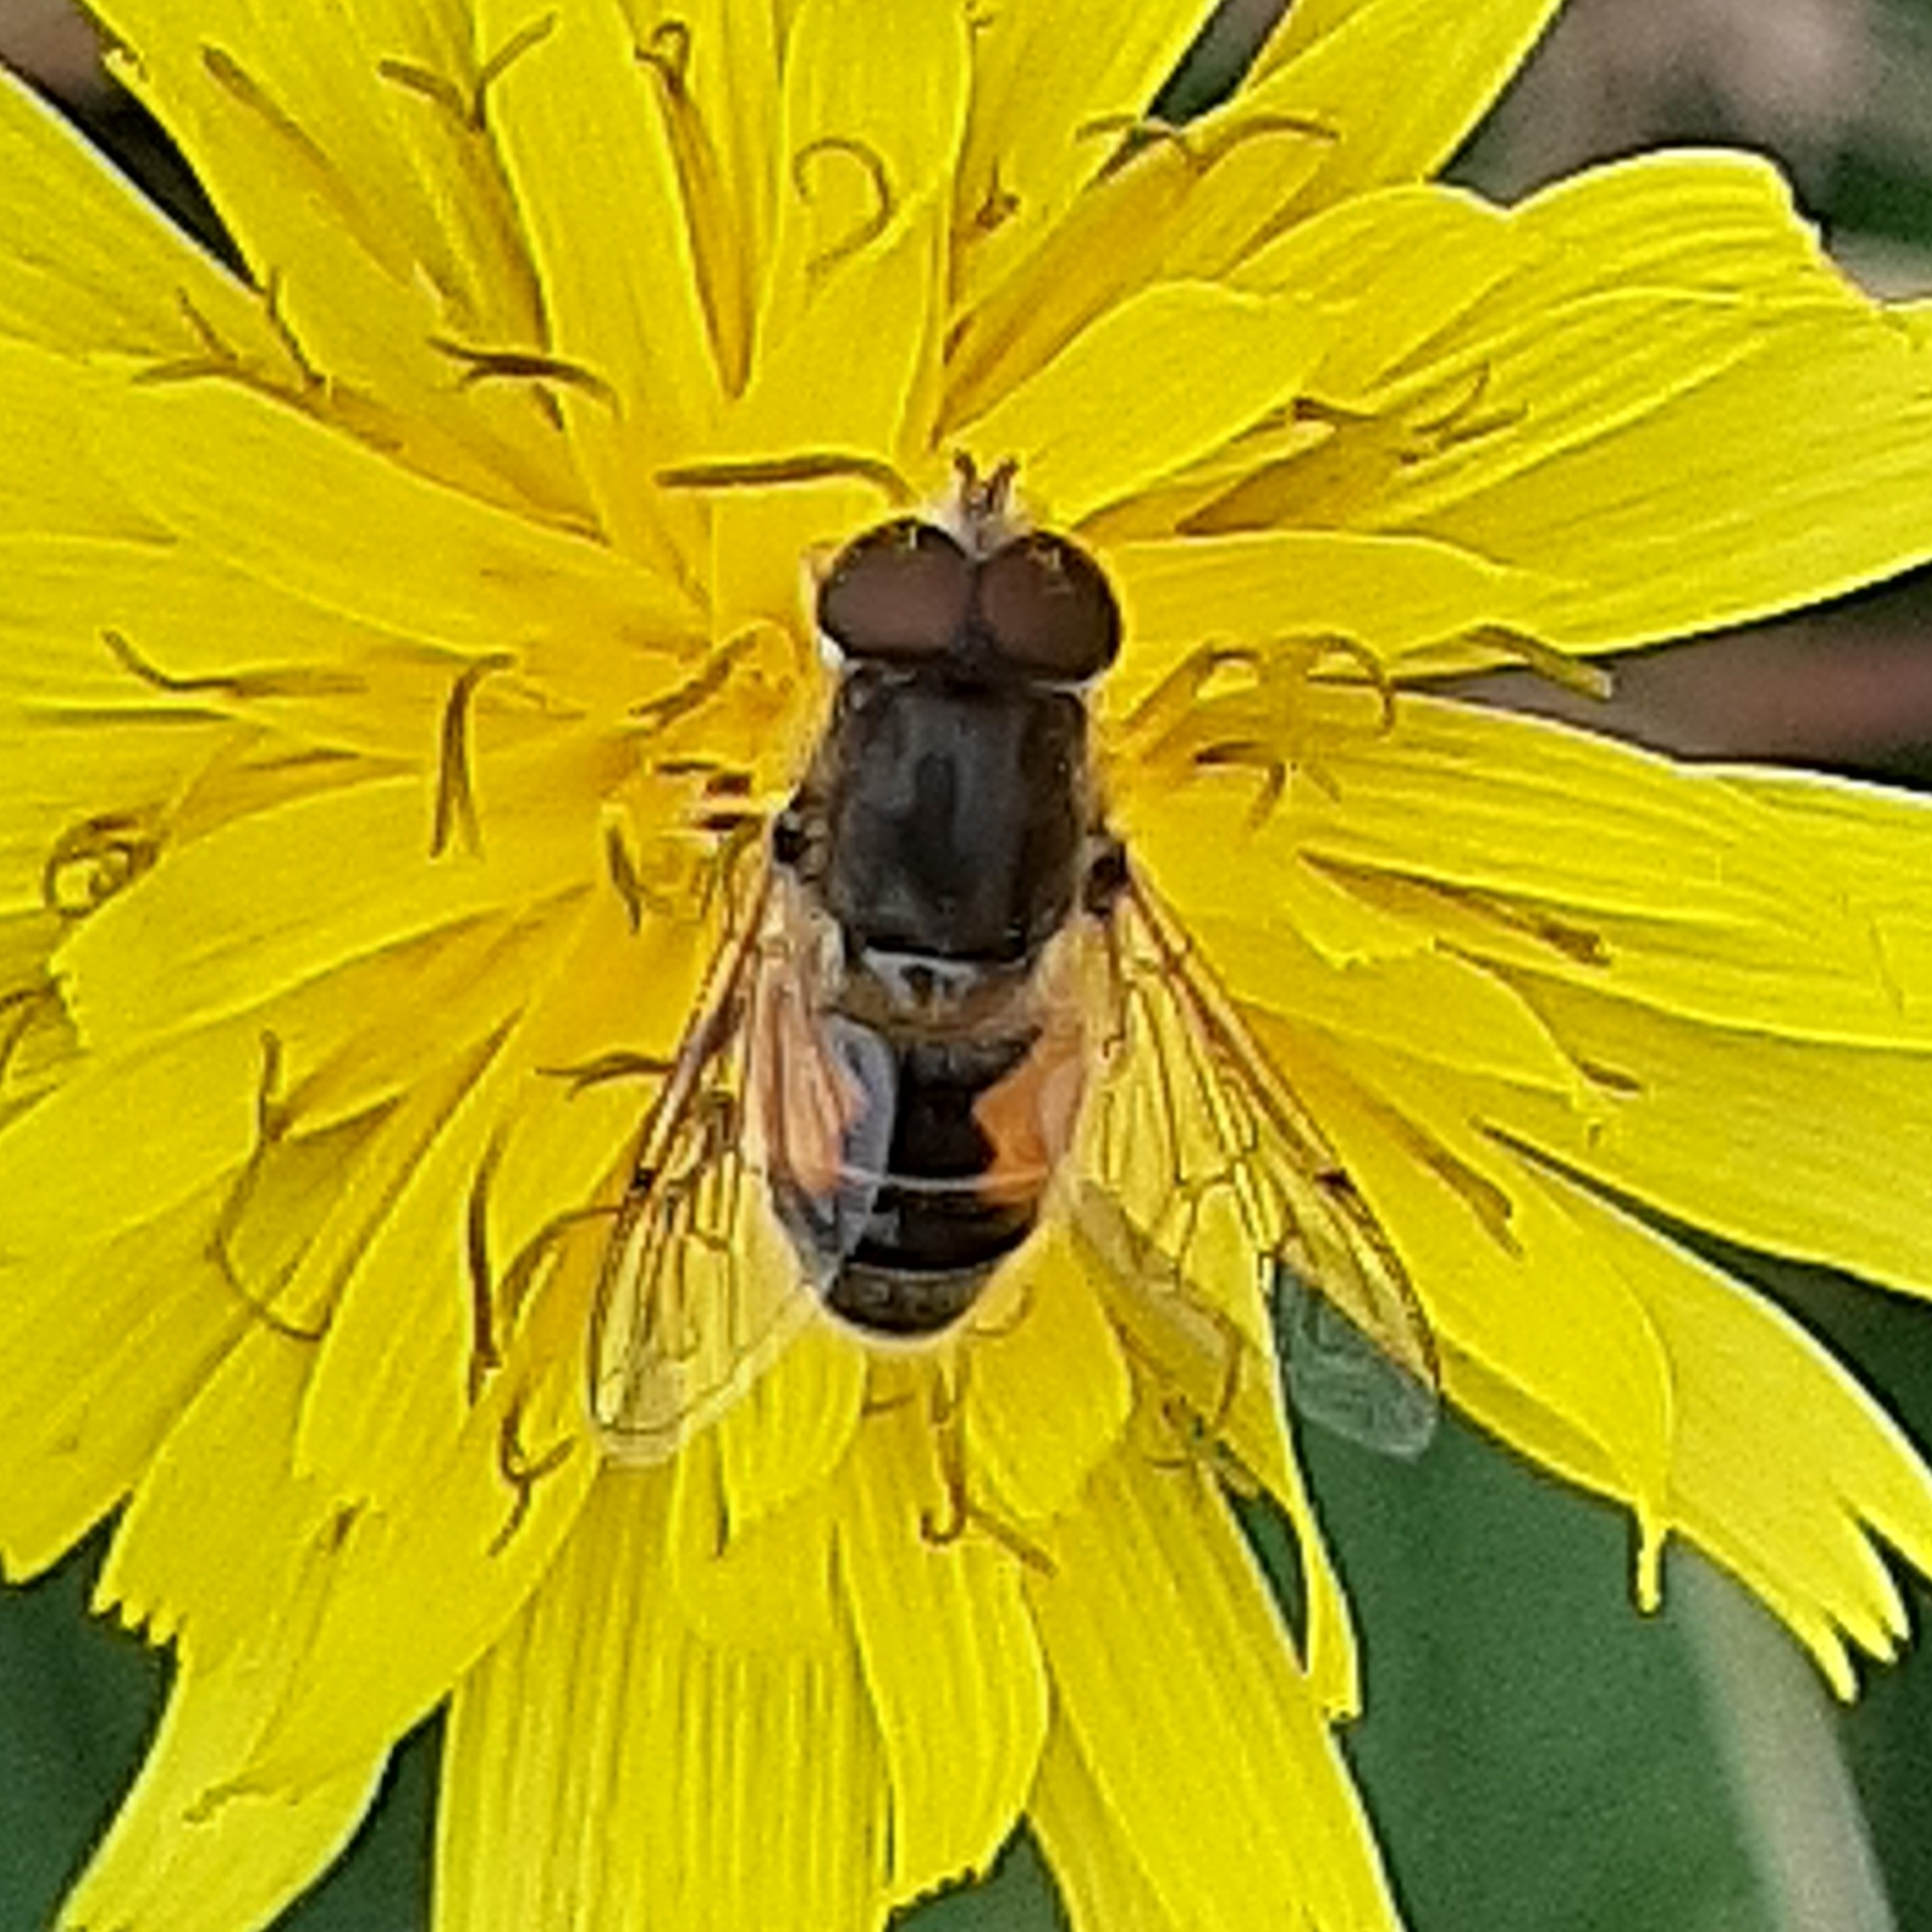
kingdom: Animalia
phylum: Arthropoda
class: Insecta
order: Diptera
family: Syrphidae
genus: Eristalis
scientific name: Eristalis arbustorum
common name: Hover fly
